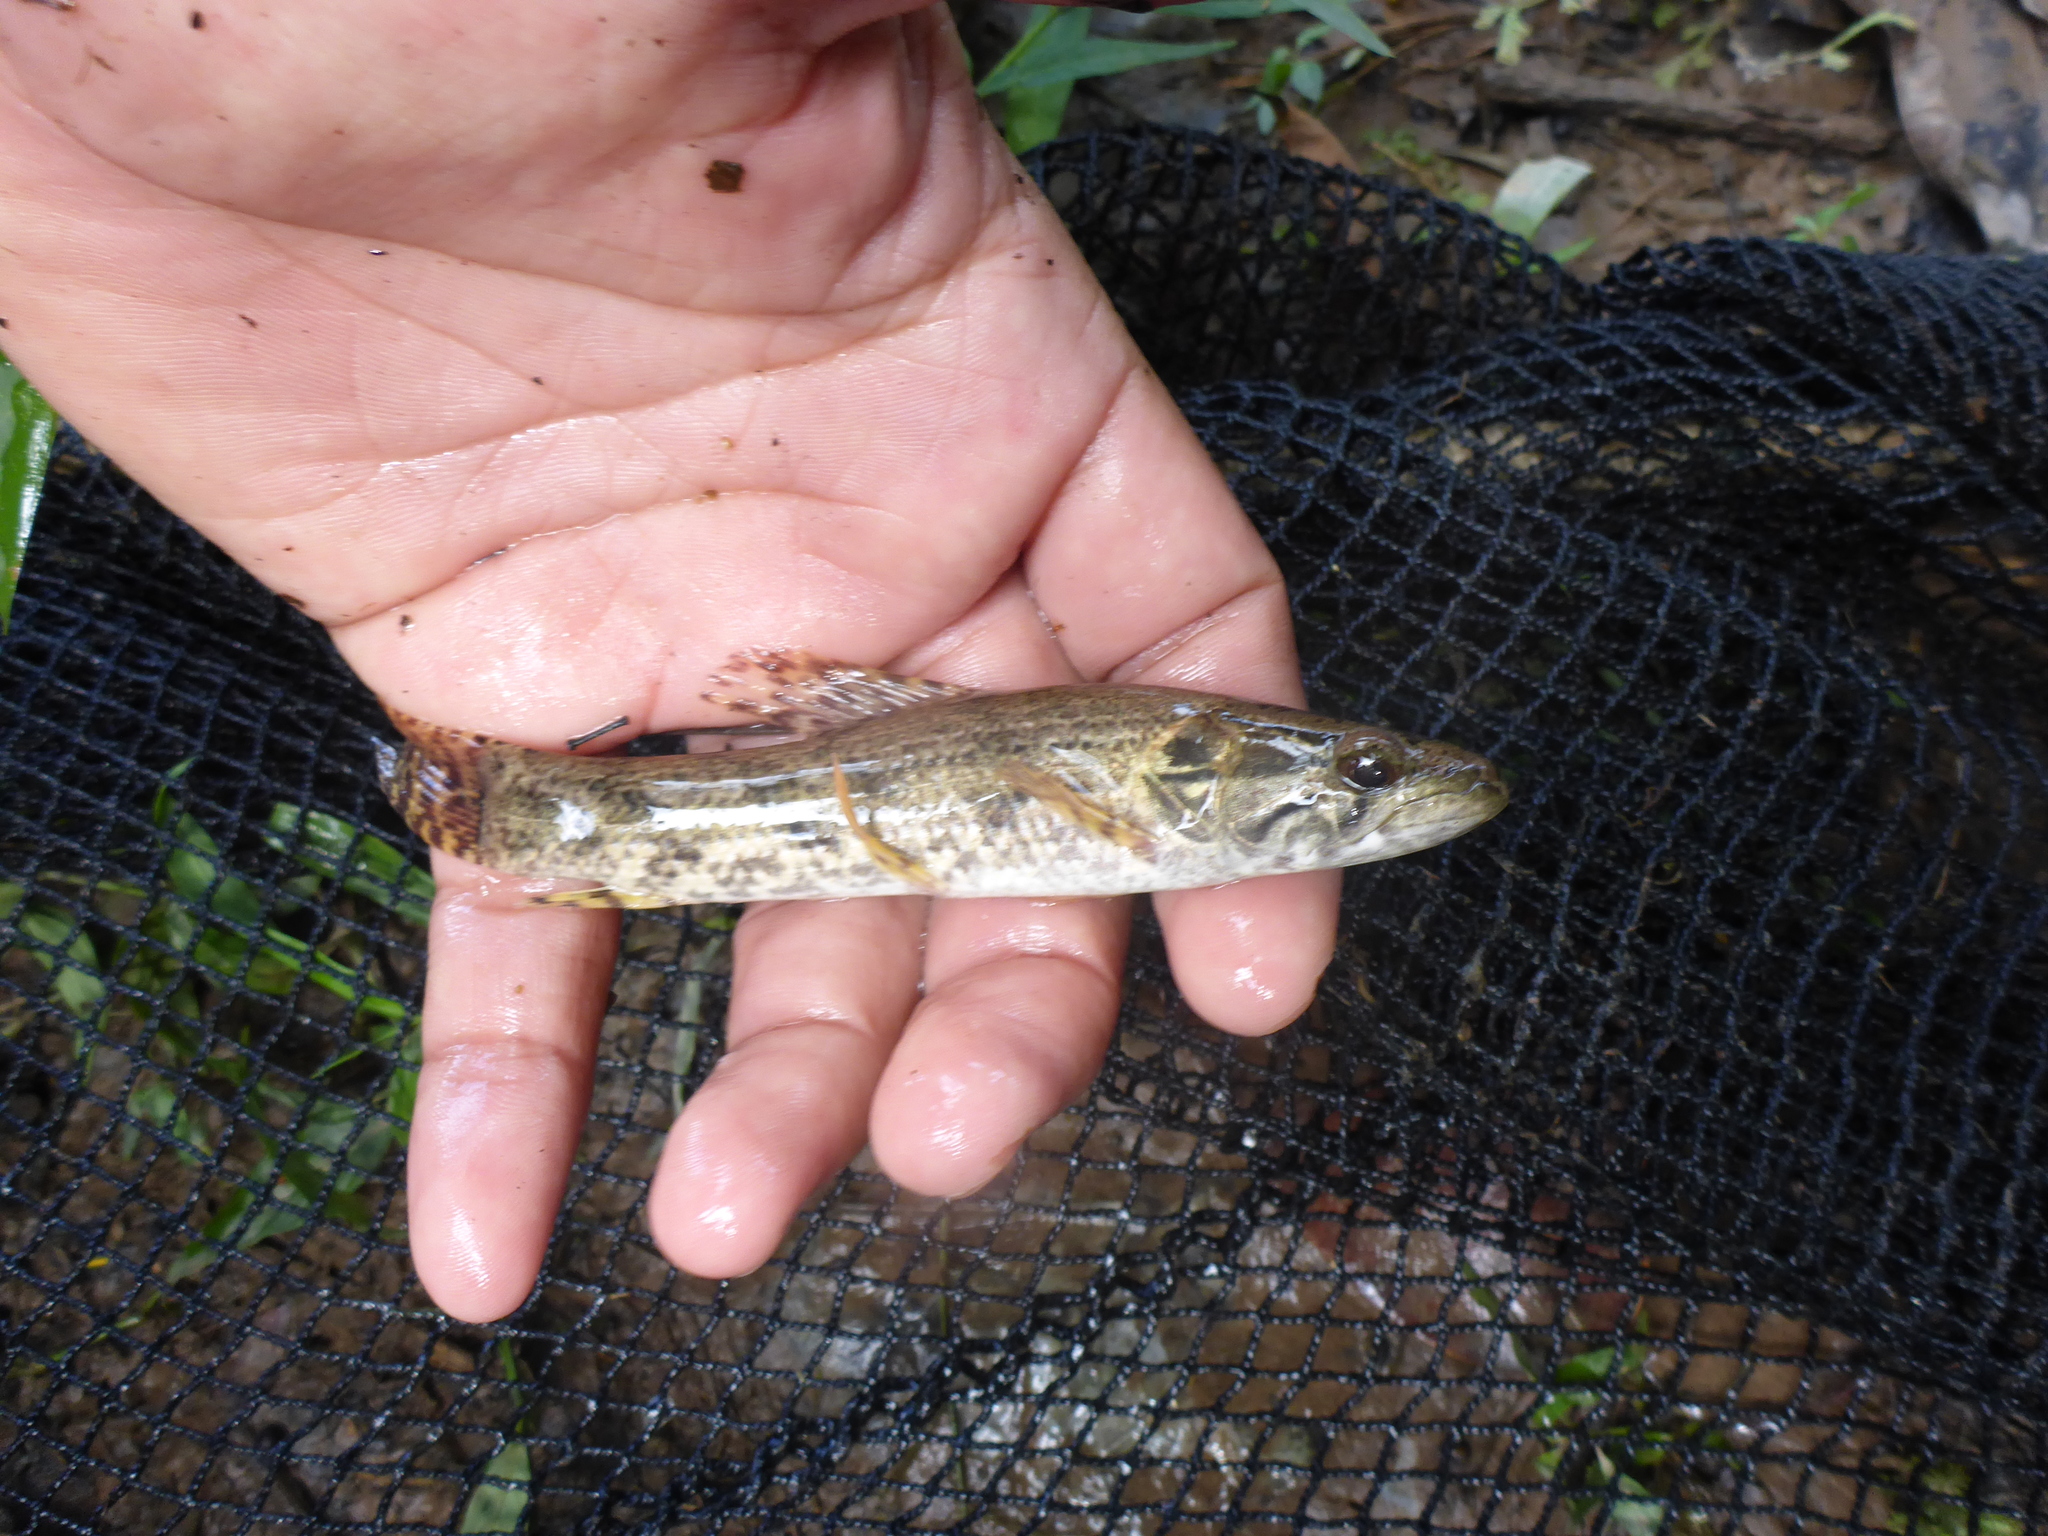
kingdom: Animalia
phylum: Chordata
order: Characiformes
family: Erythrinidae
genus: Hoplias
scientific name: Hoplias malabaricus
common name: Trahira
